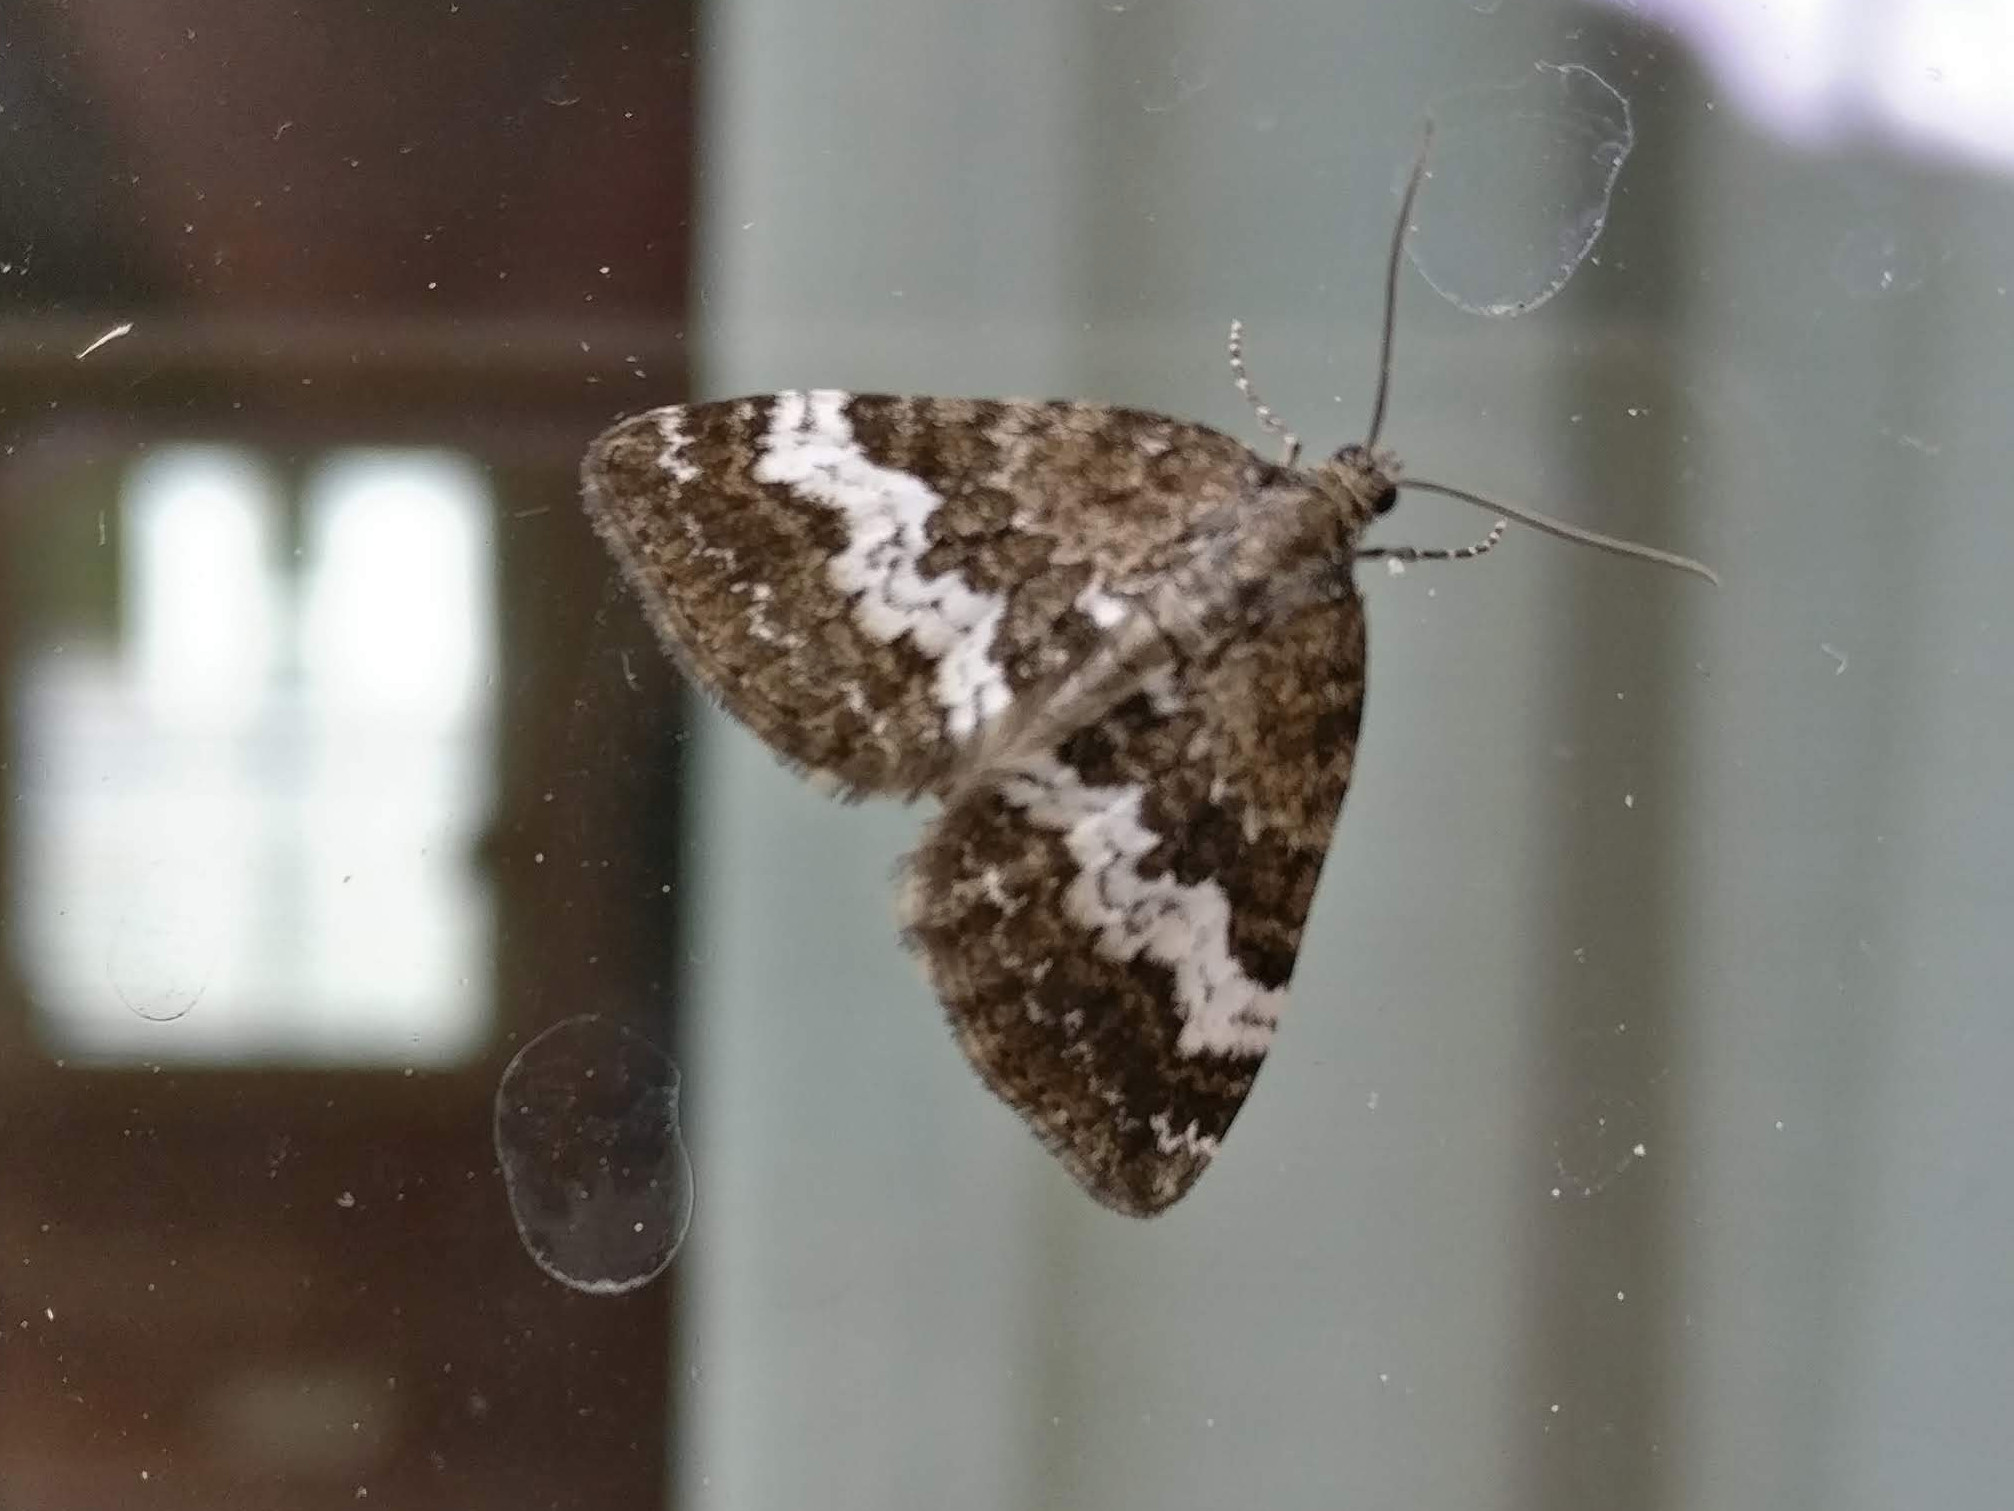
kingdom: Animalia
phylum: Arthropoda
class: Insecta
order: Lepidoptera
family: Geometridae
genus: Perizoma
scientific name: Perizoma affinitata
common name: Rivulet
